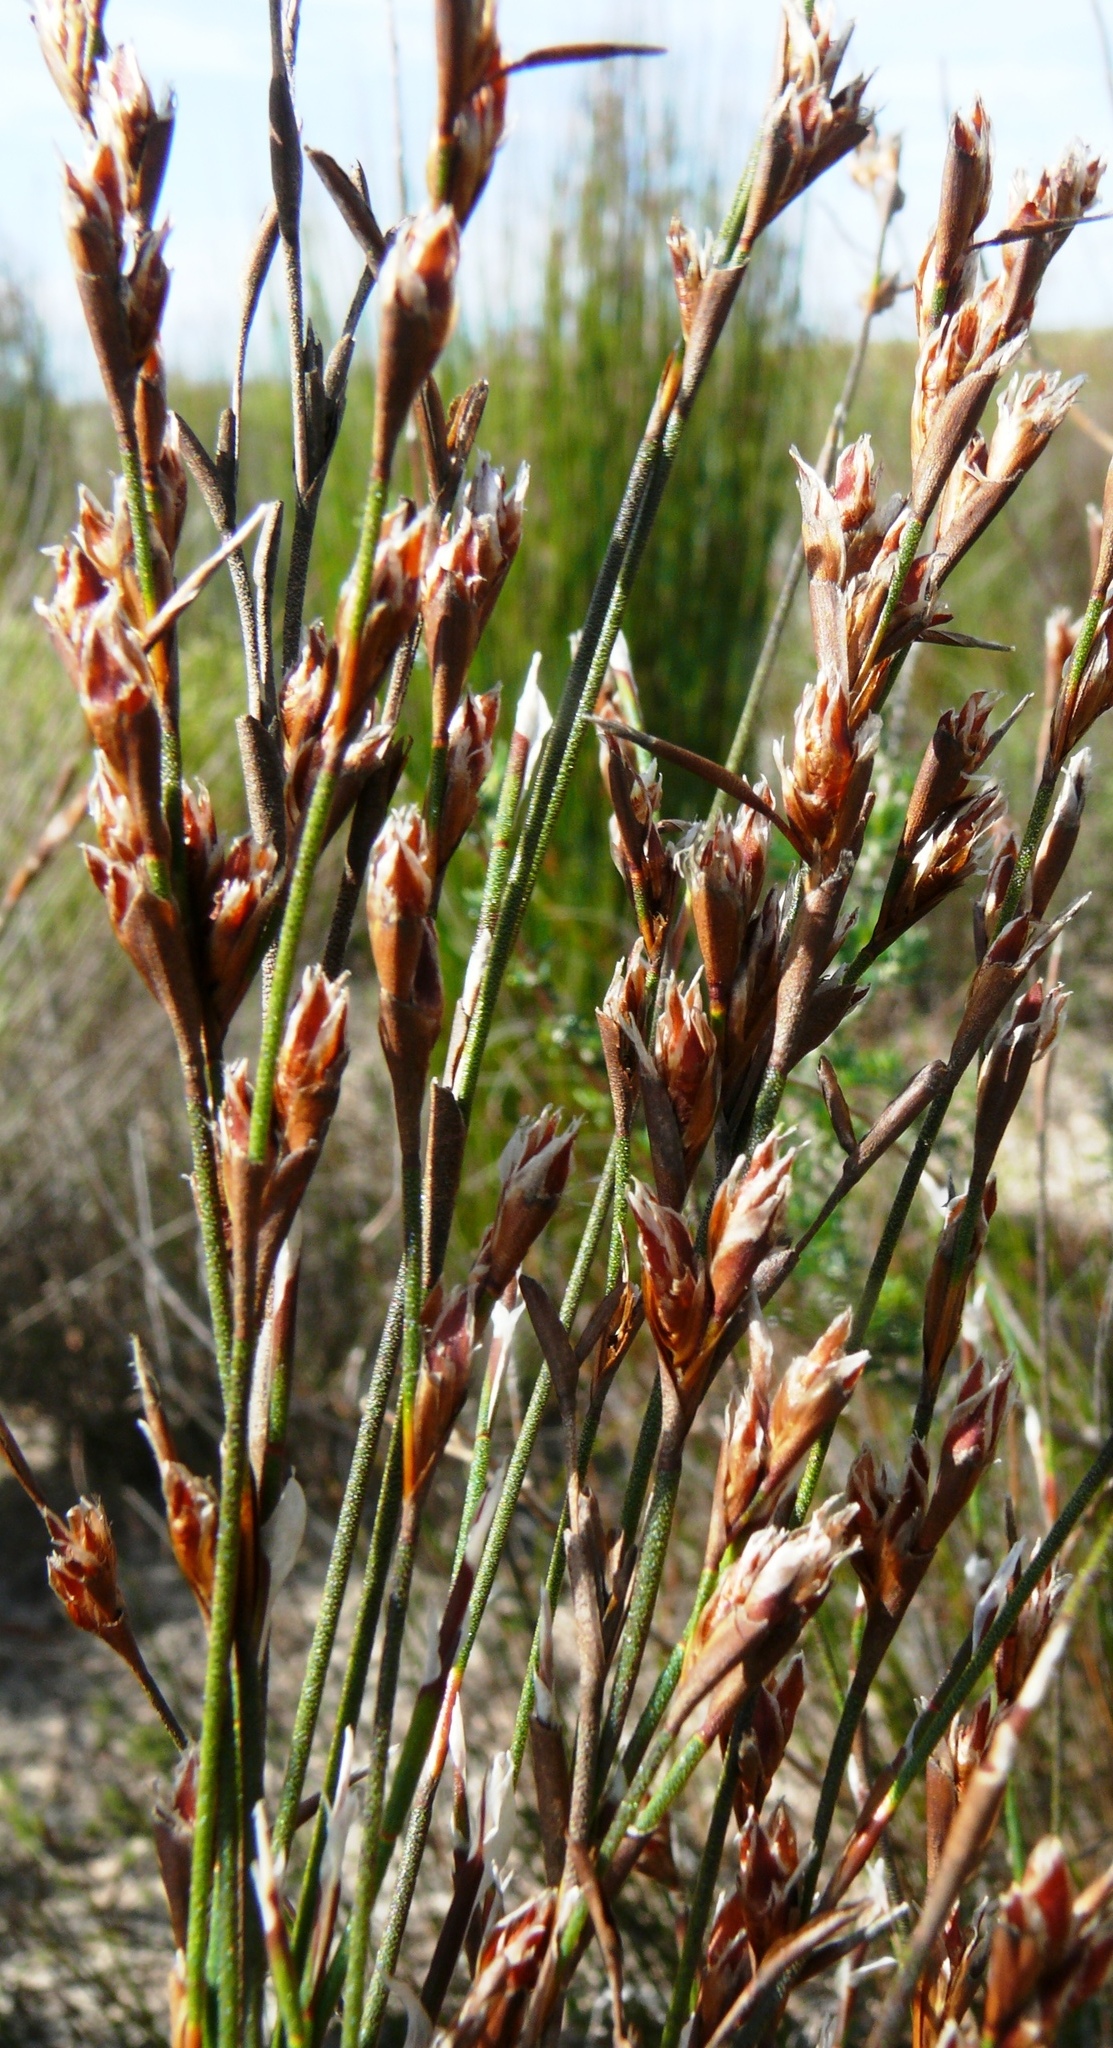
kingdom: Plantae
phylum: Tracheophyta
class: Liliopsida
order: Poales
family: Restionaceae
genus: Restio
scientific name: Restio impolitus
